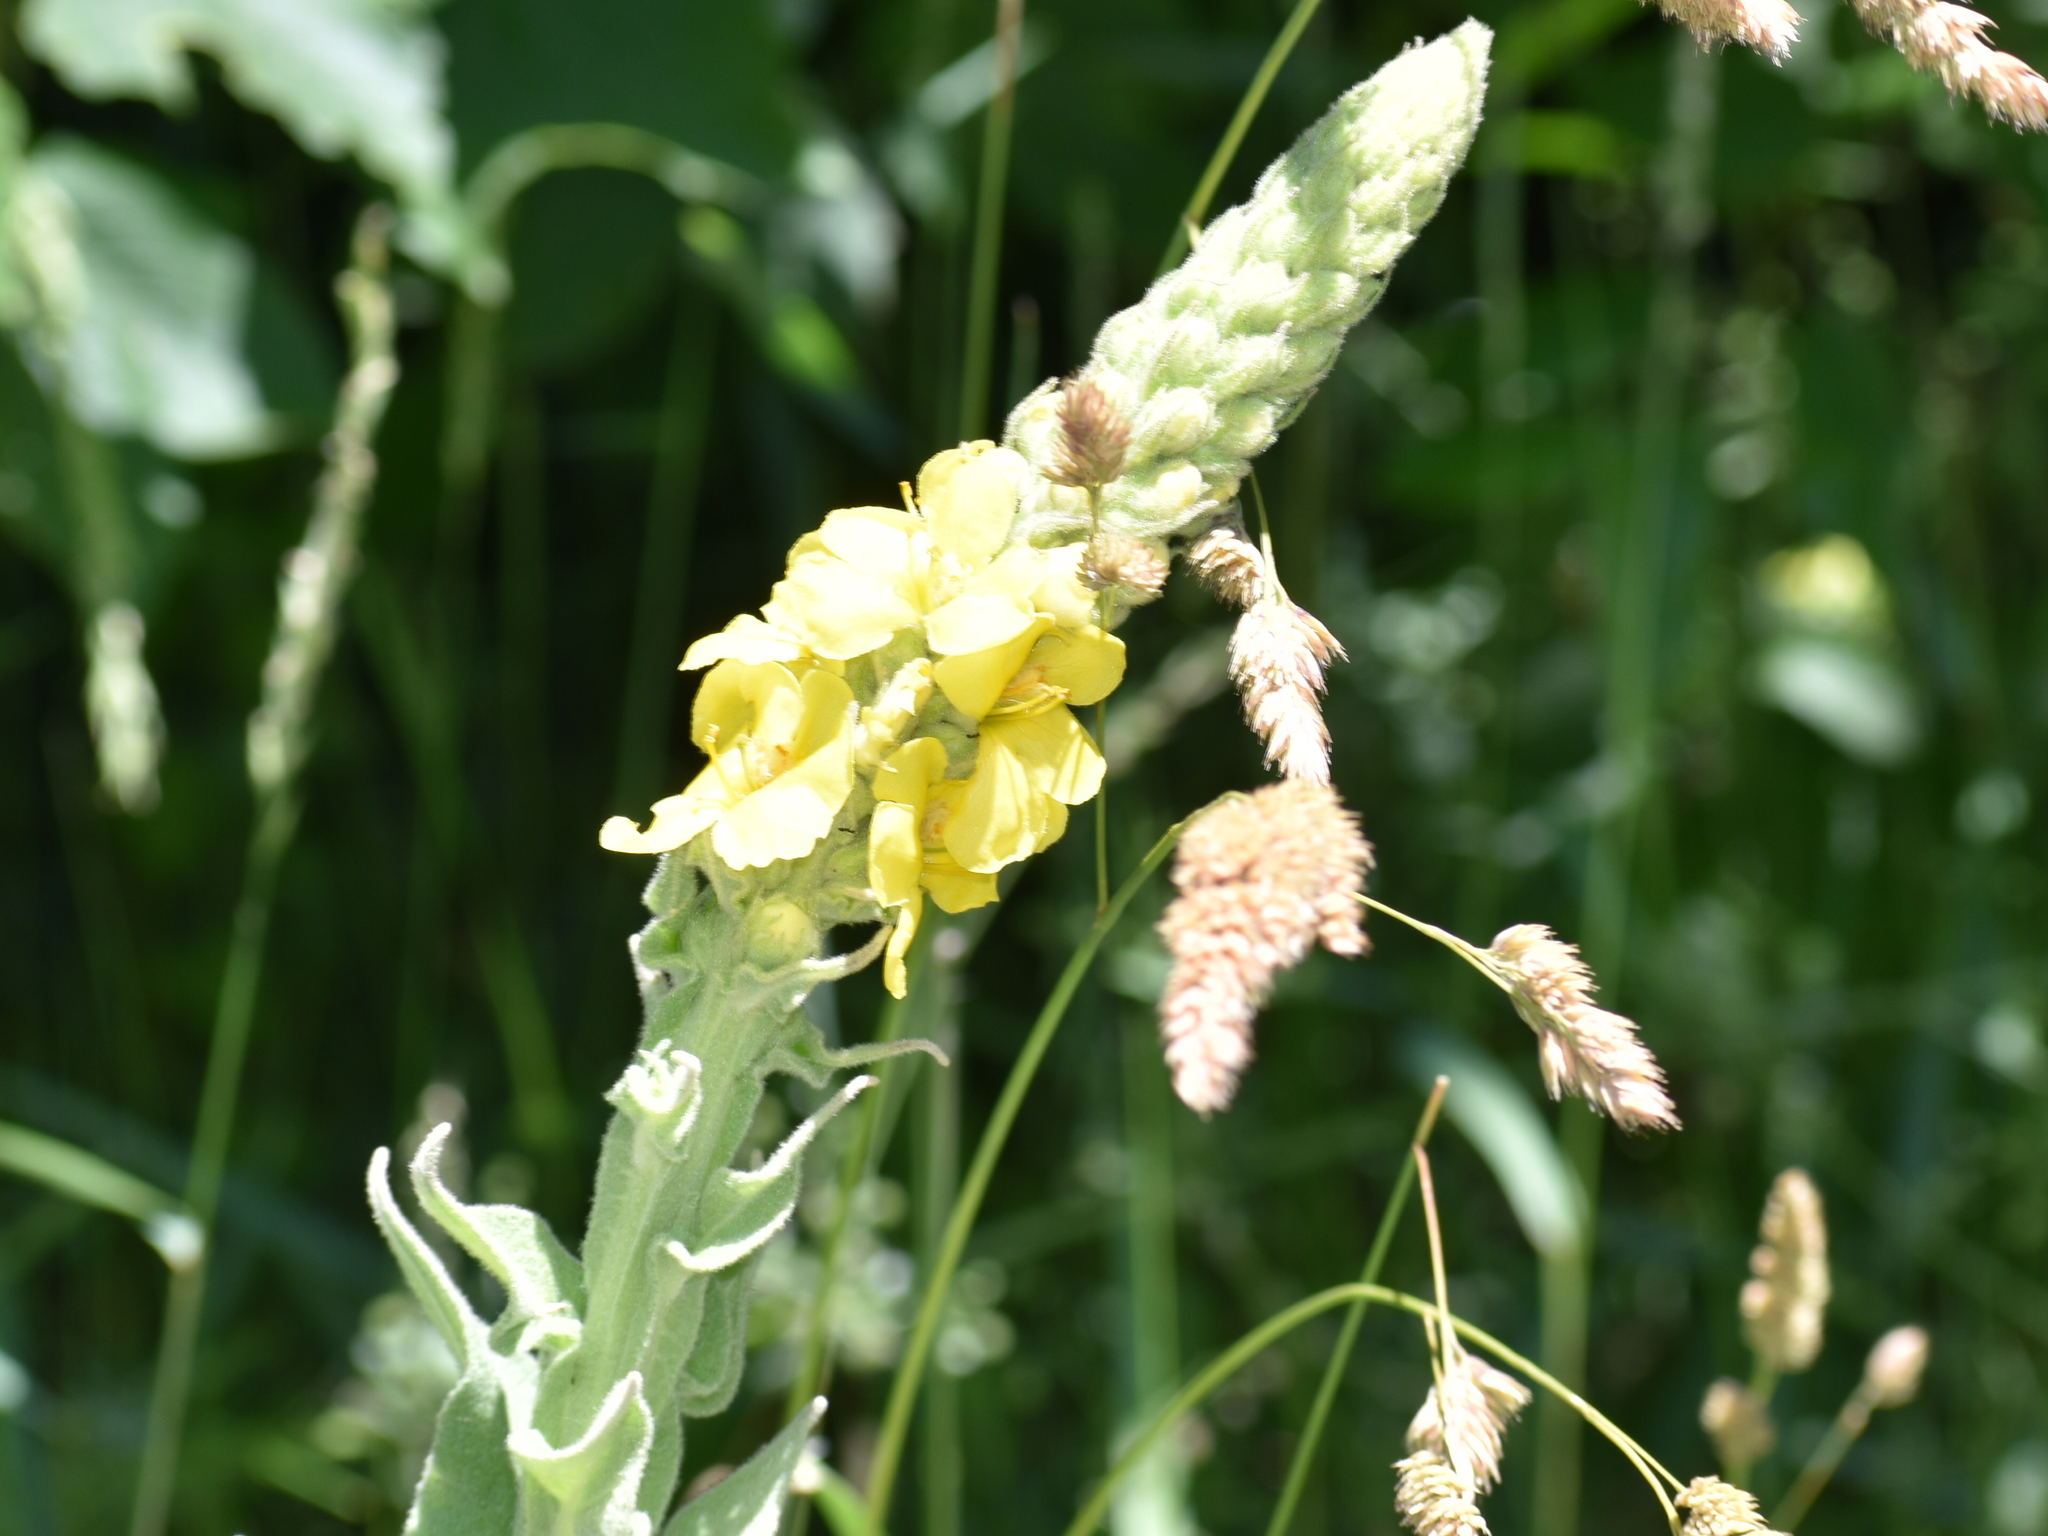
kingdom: Plantae
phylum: Tracheophyta
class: Magnoliopsida
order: Lamiales
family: Scrophulariaceae
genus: Verbascum
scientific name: Verbascum thapsus
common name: Common mullein
